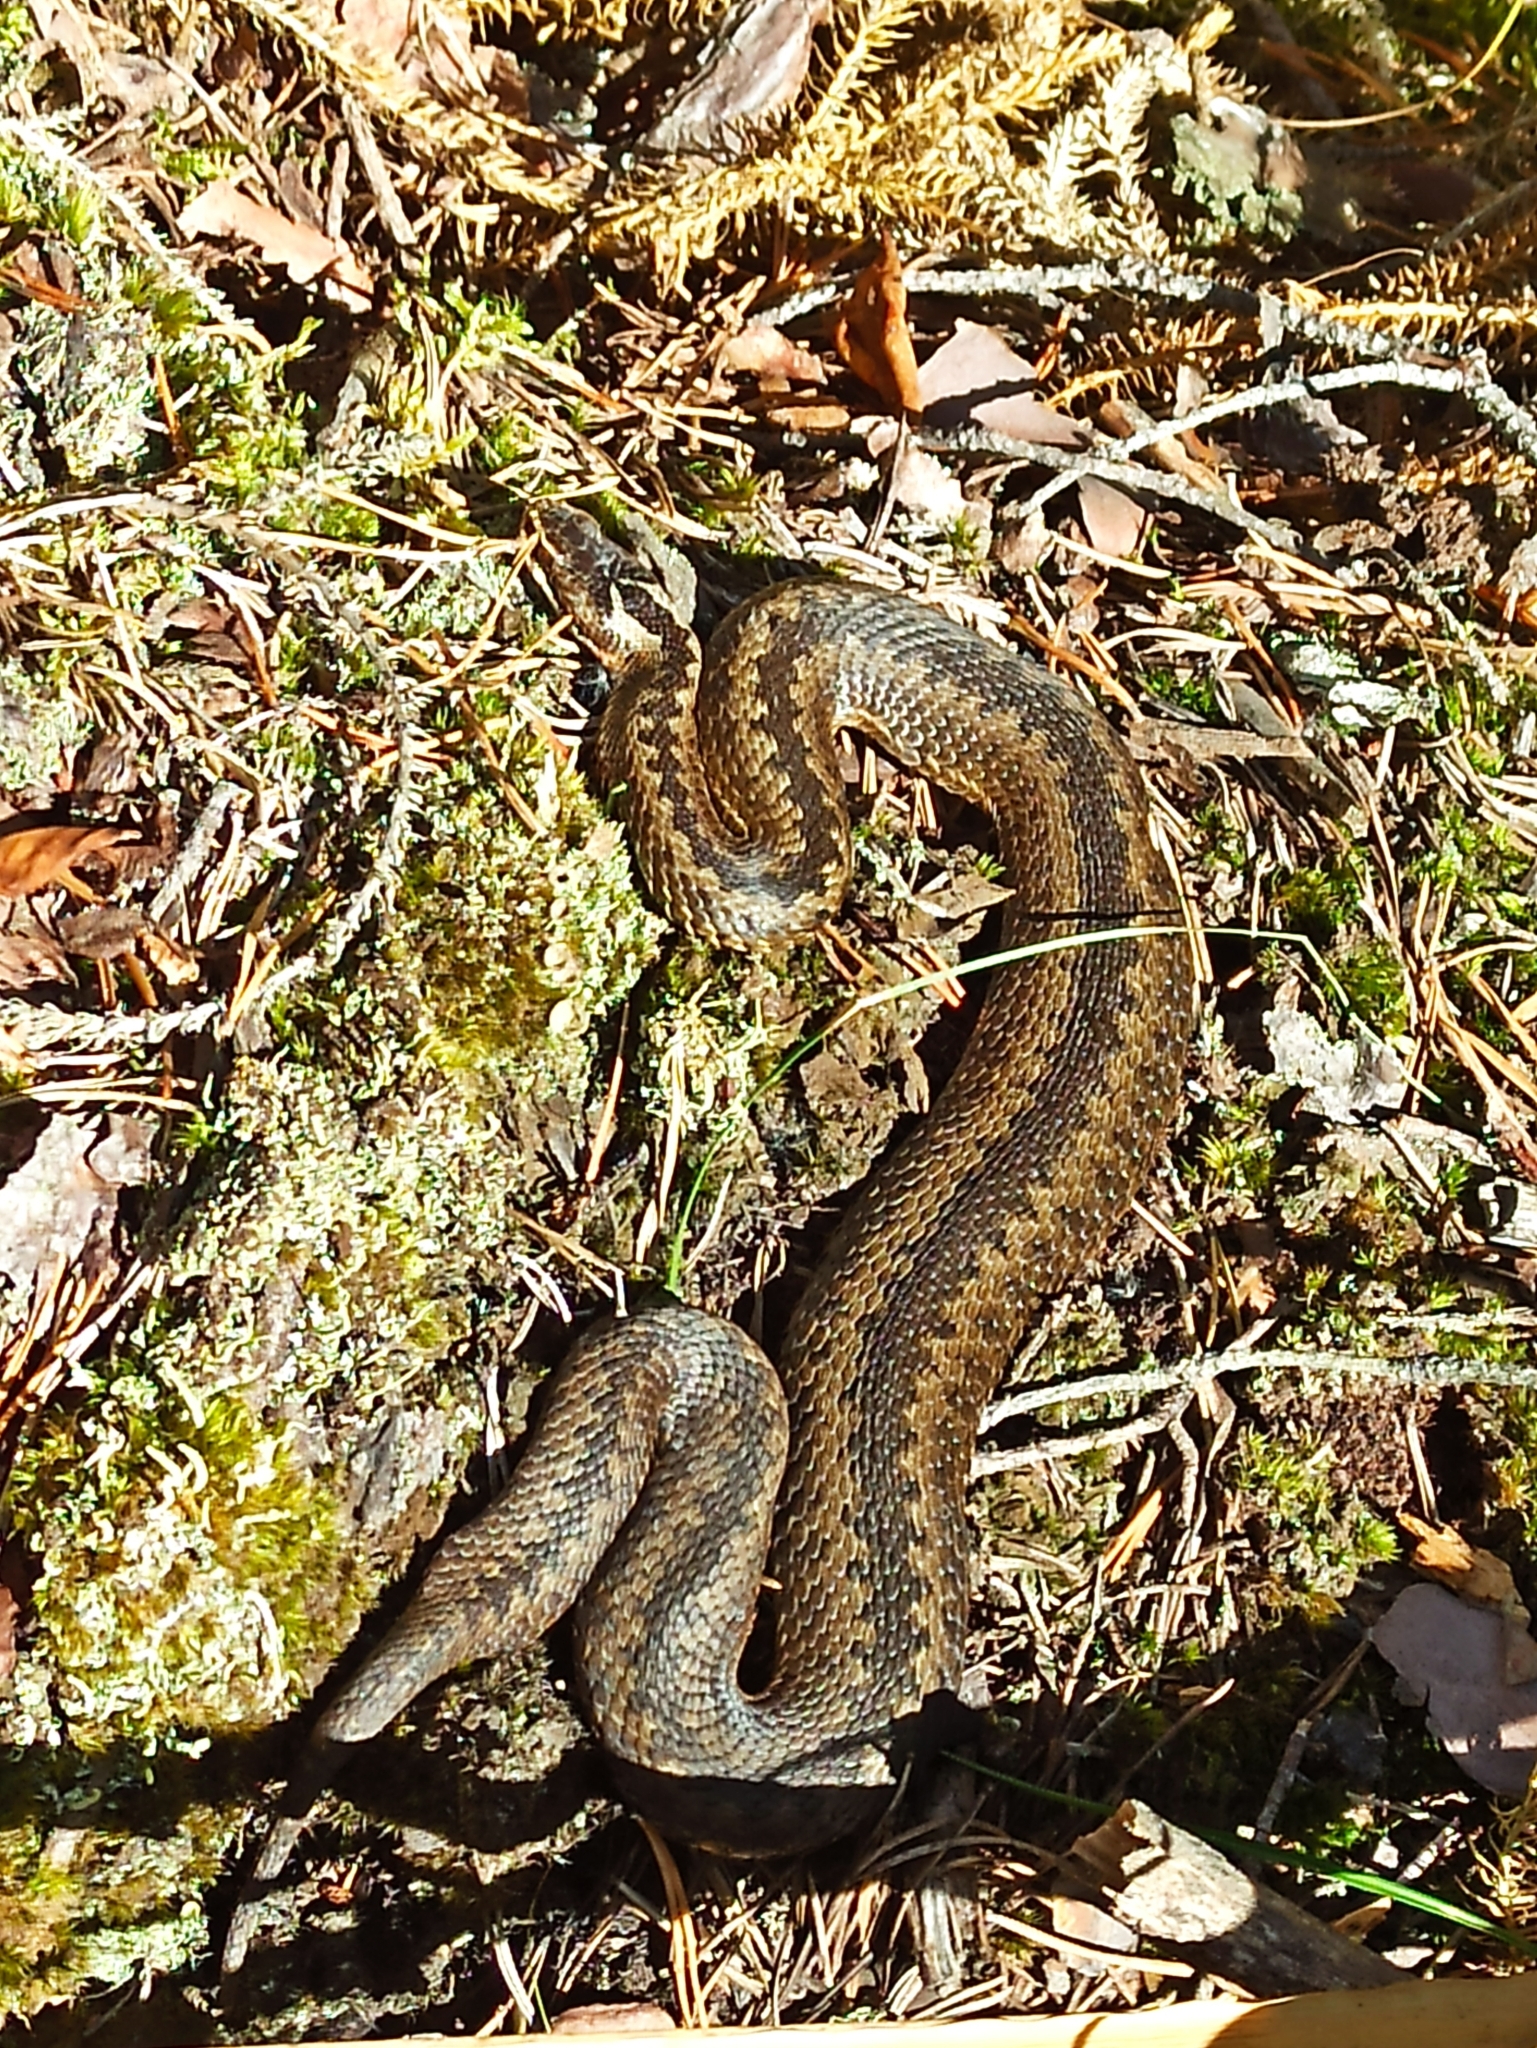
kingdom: Animalia
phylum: Chordata
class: Squamata
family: Viperidae
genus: Vipera
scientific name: Vipera berus
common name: Adder
